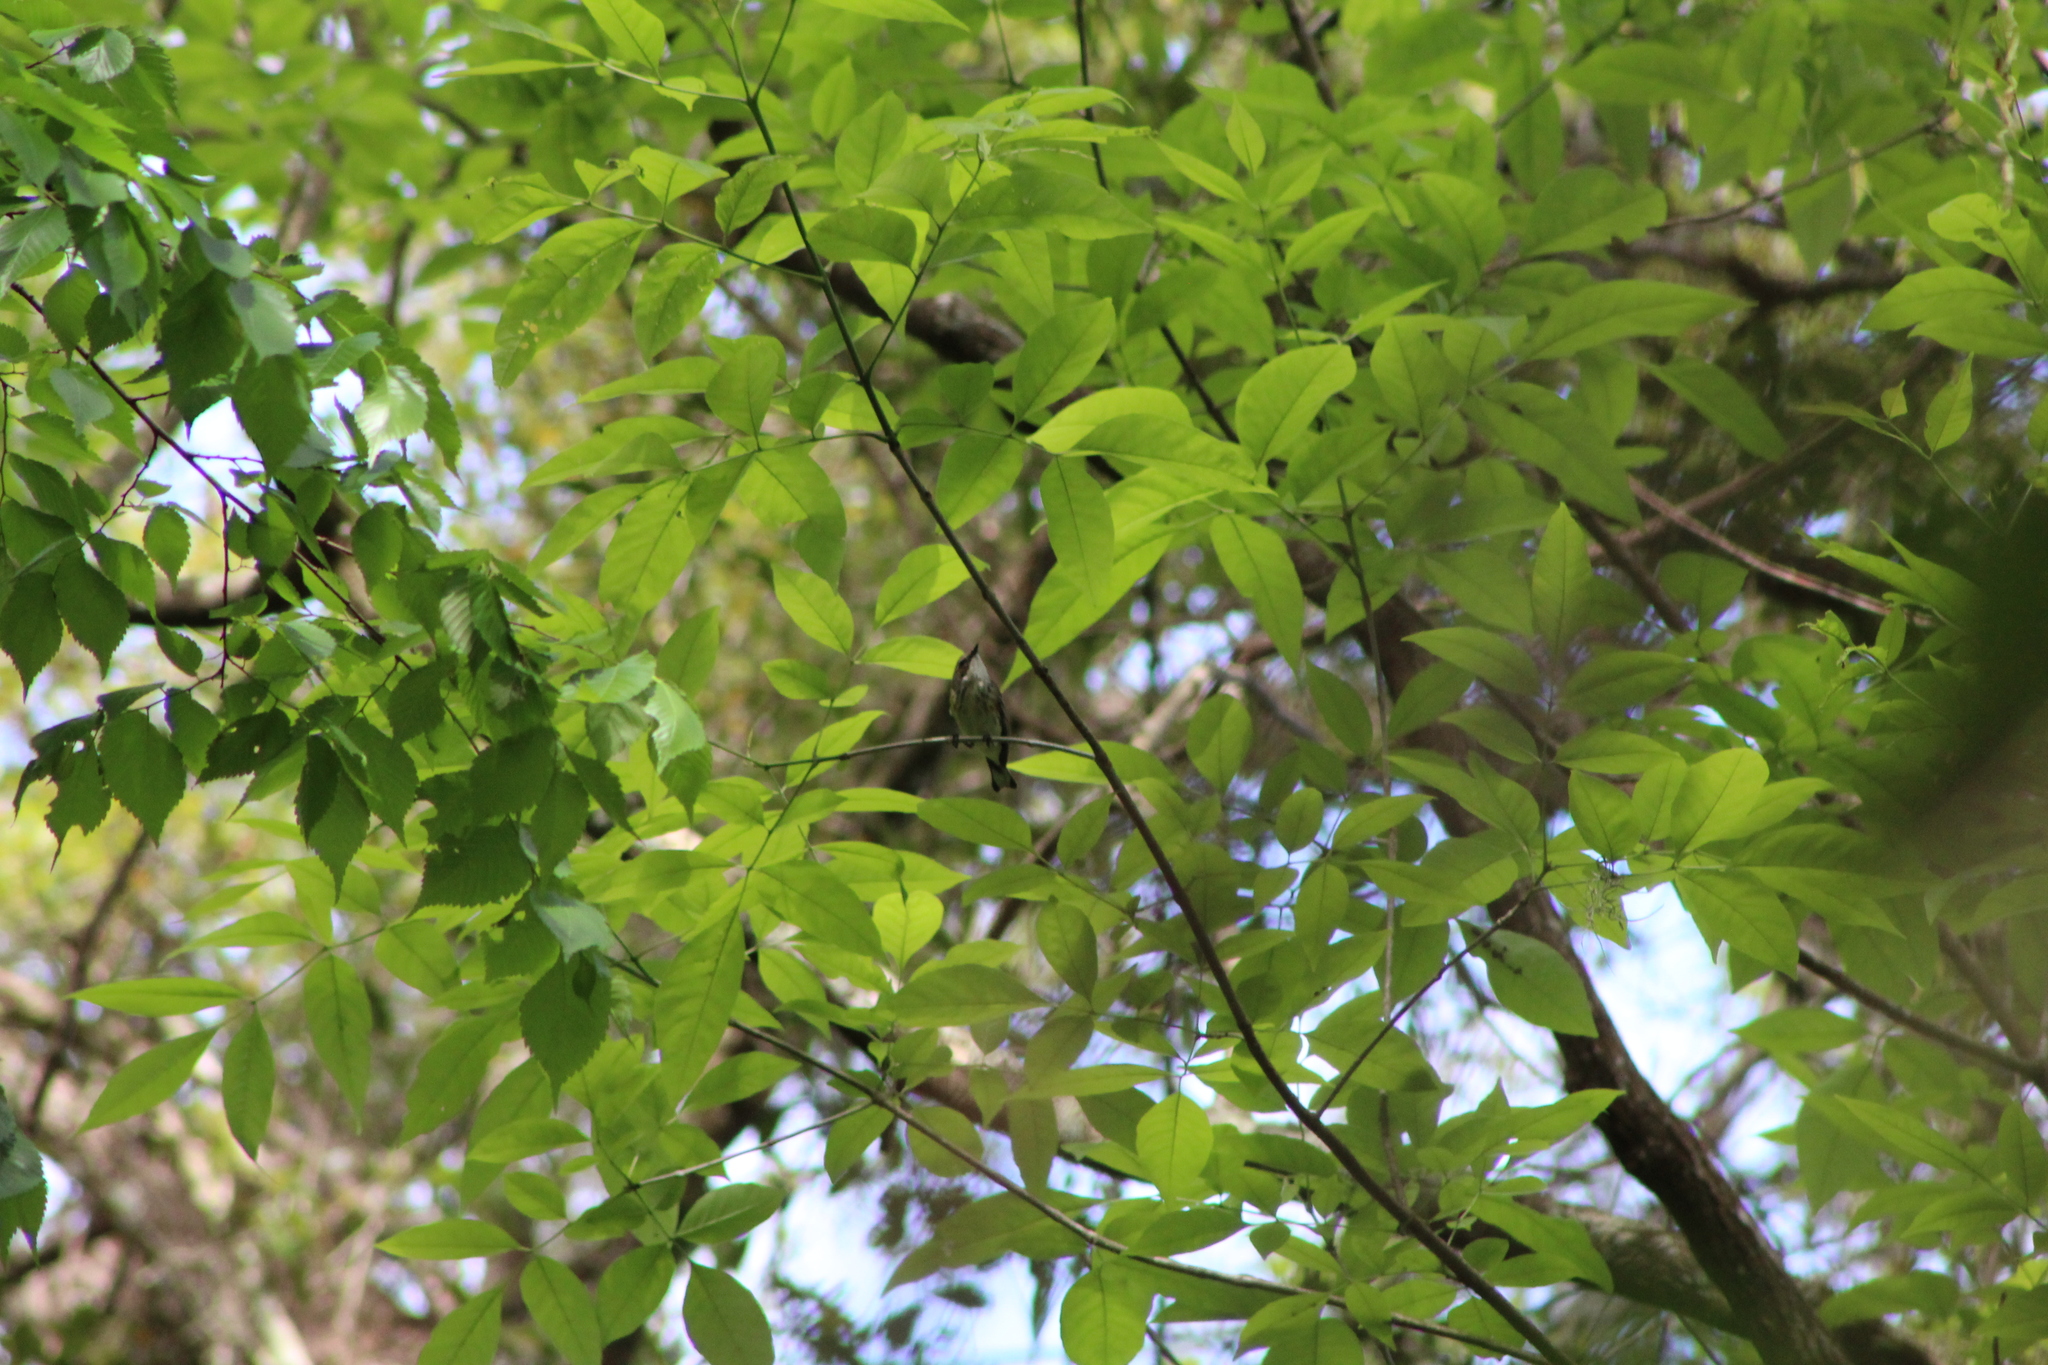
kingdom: Animalia
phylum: Chordata
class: Aves
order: Passeriformes
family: Parulidae
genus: Setophaga
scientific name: Setophaga coronata
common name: Myrtle warbler
